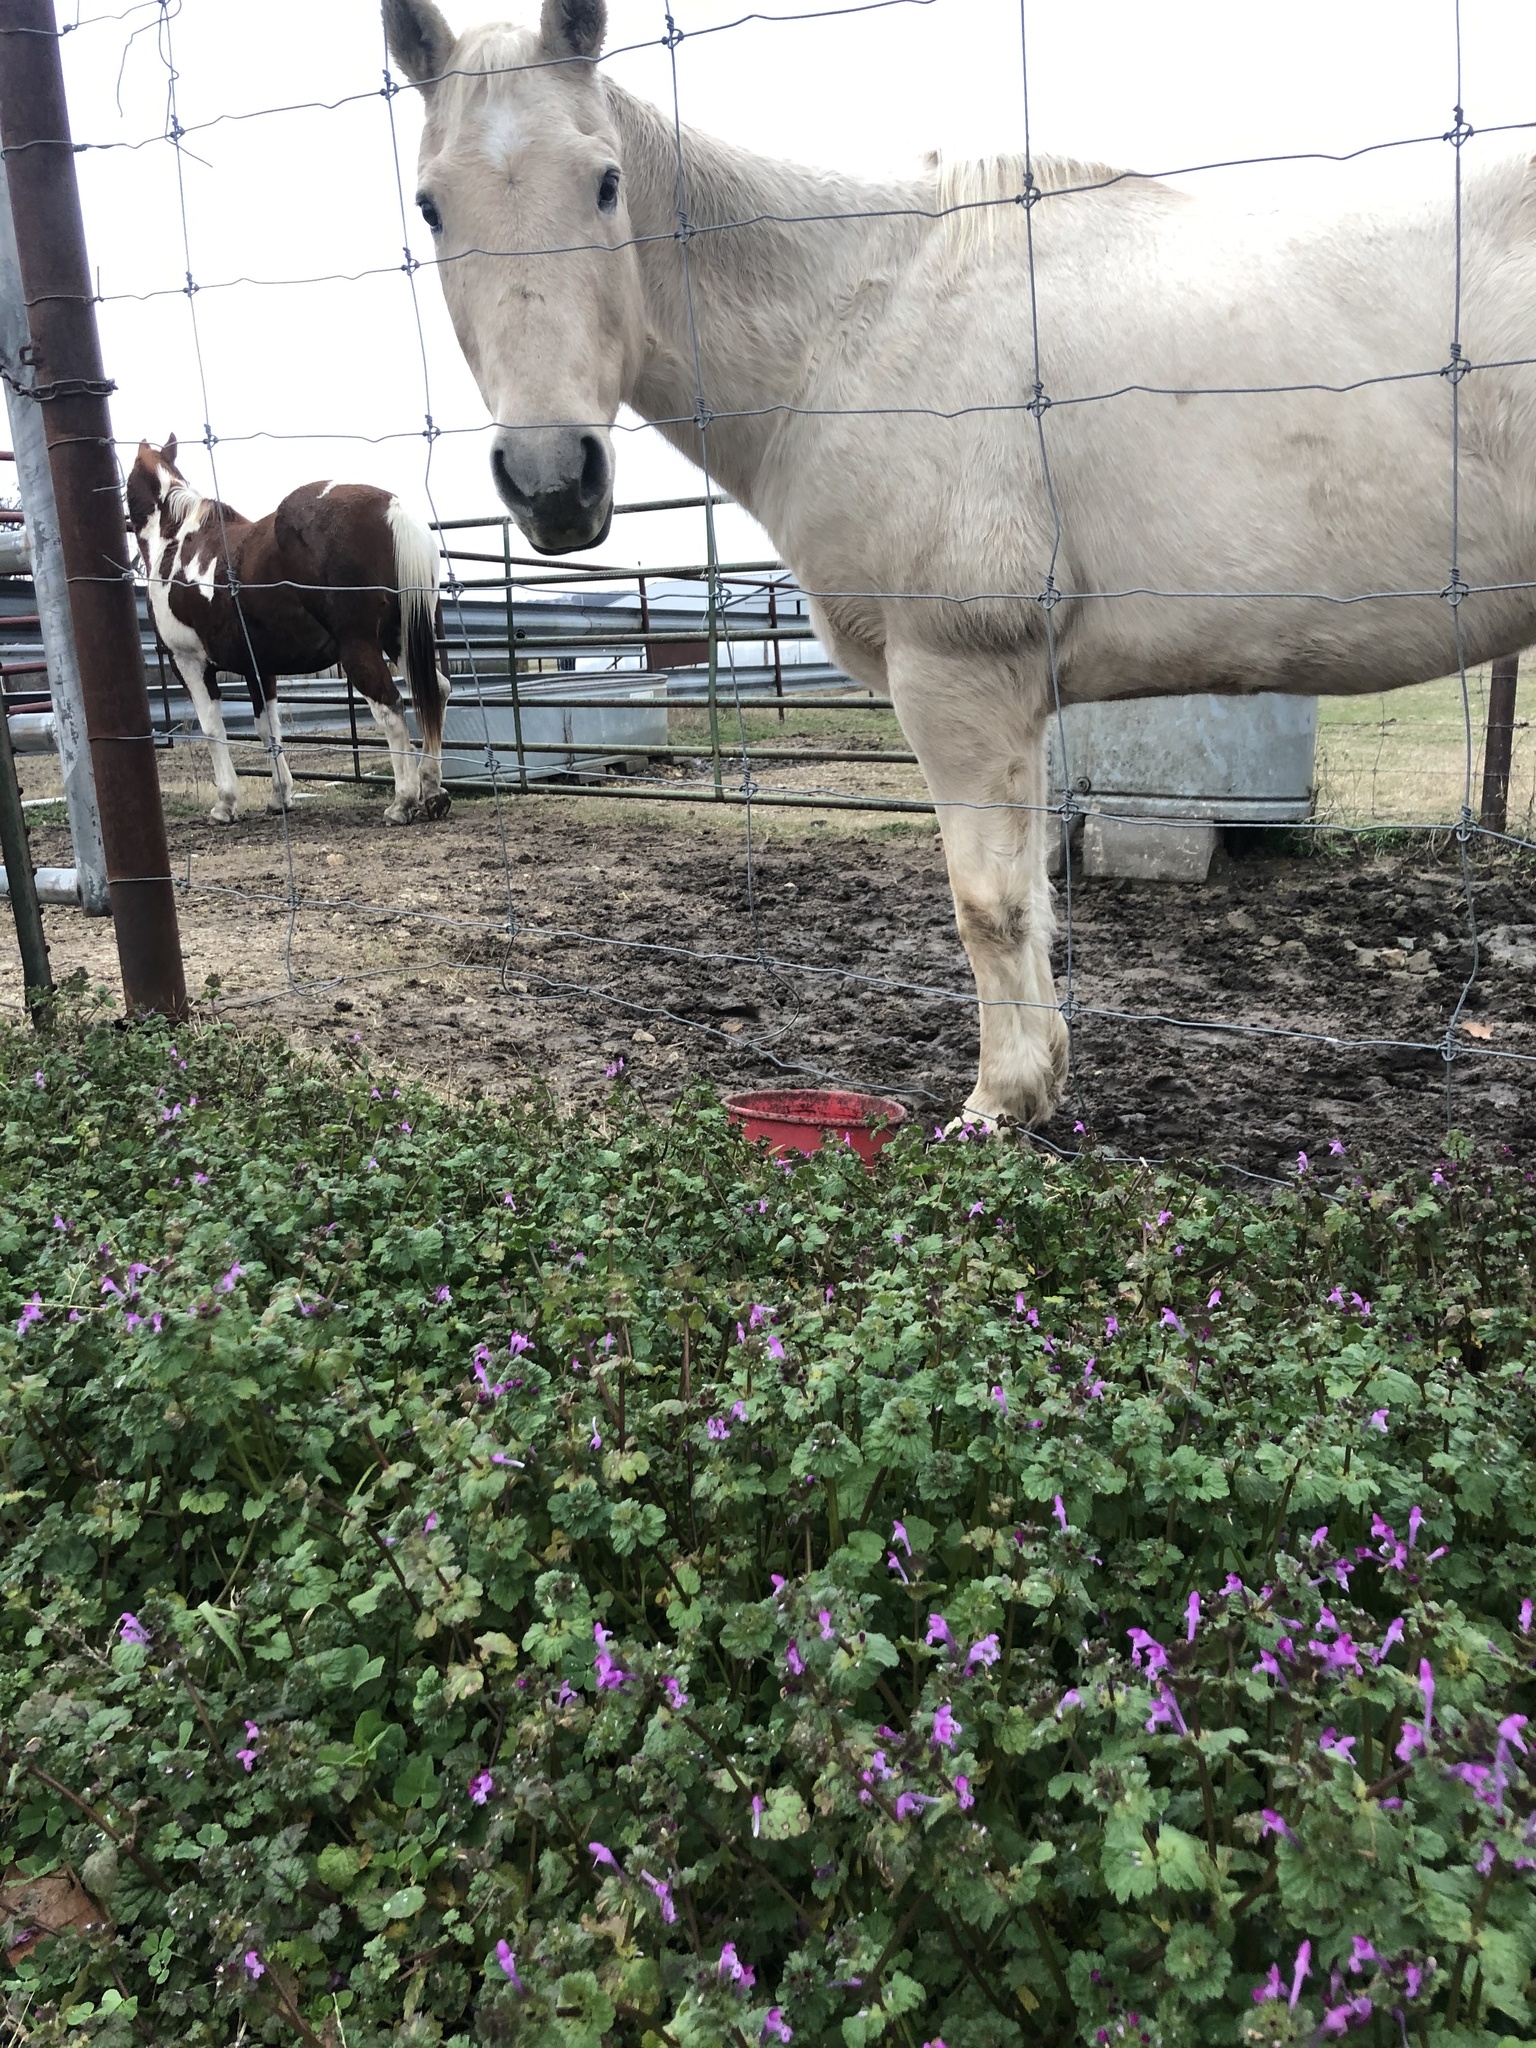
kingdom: Plantae
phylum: Tracheophyta
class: Magnoliopsida
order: Lamiales
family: Lamiaceae
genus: Lamium
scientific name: Lamium amplexicaule
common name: Henbit dead-nettle
